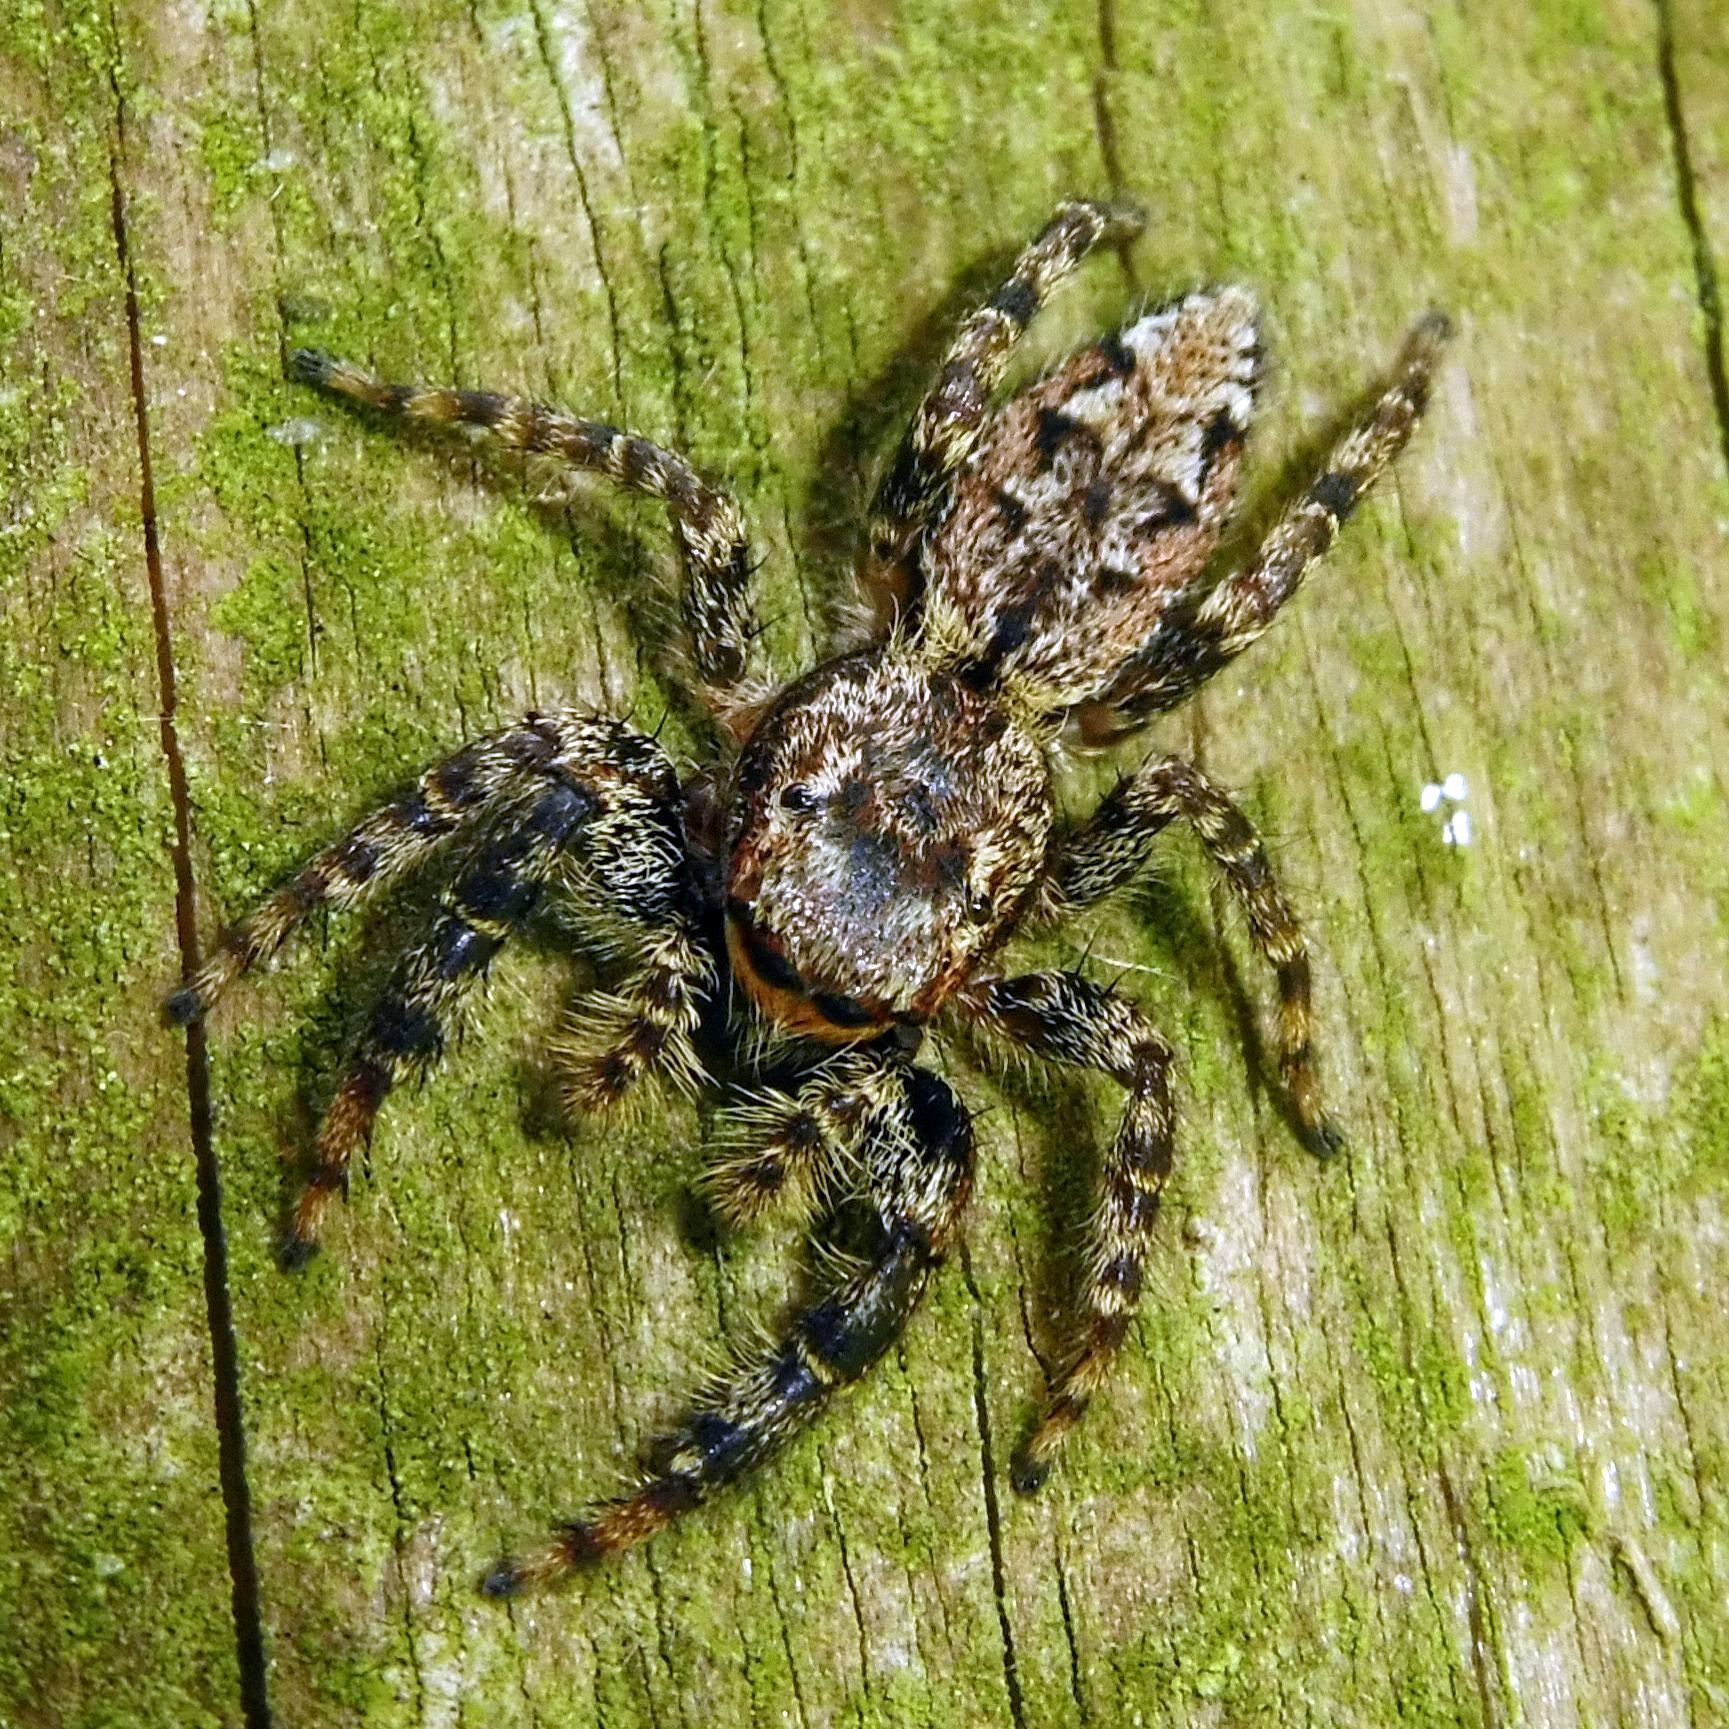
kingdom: Animalia
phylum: Arthropoda
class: Arachnida
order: Araneae
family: Salticidae
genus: Marpissa
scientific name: Marpissa muscosa
